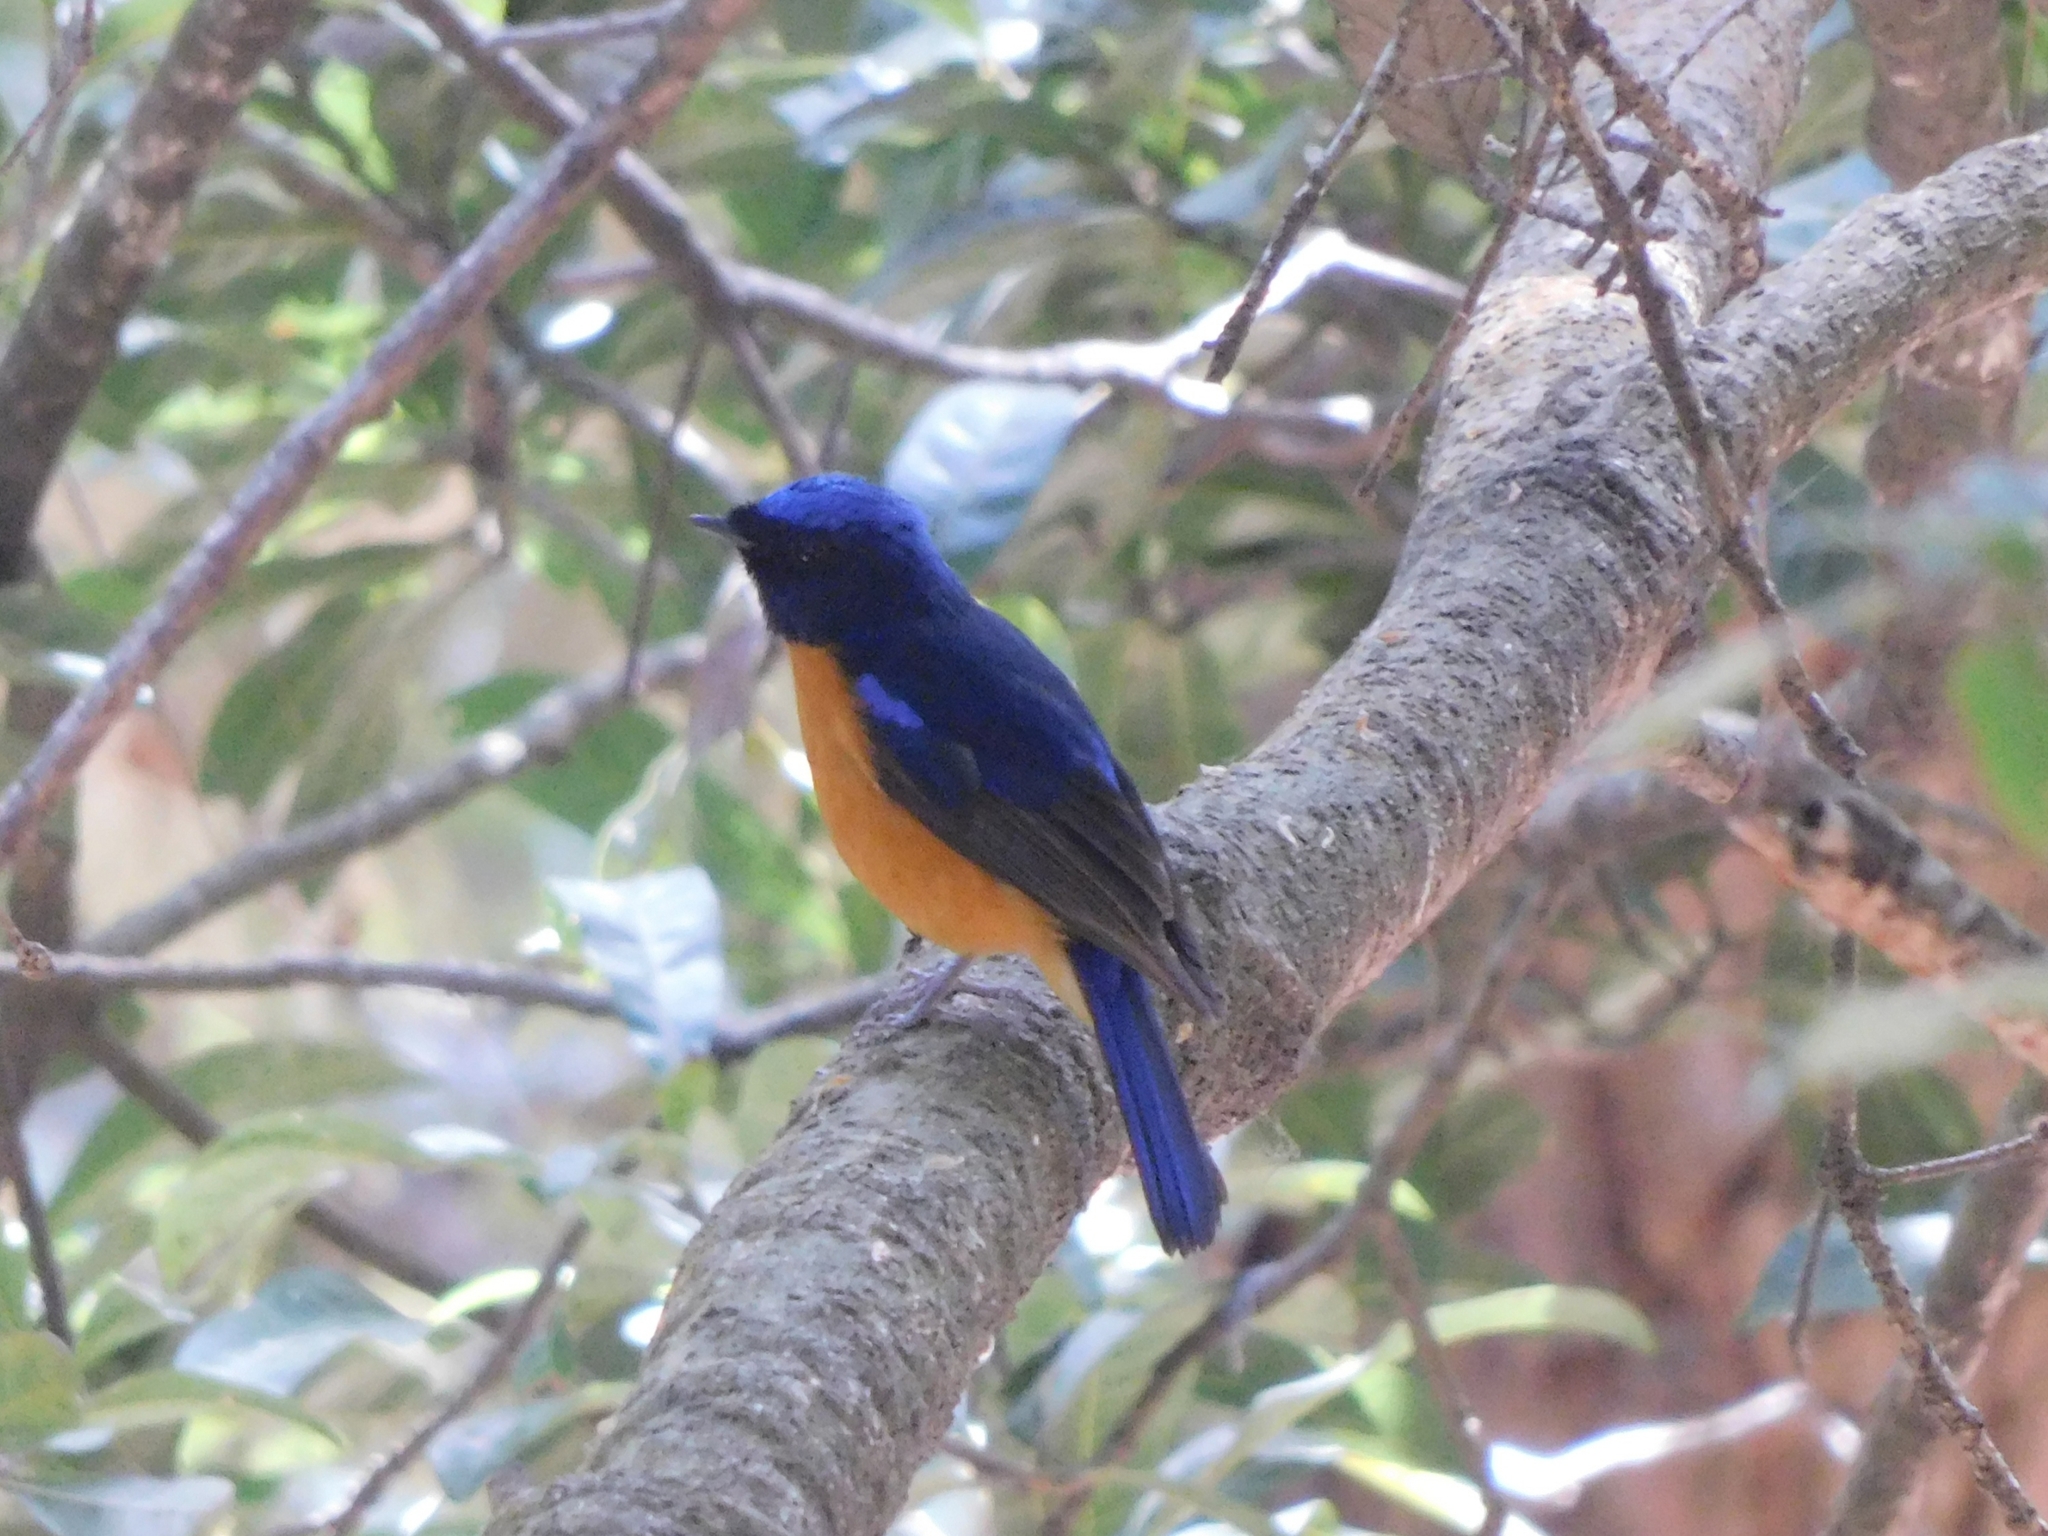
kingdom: Animalia
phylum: Chordata
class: Aves
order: Passeriformes
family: Muscicapidae
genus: Niltava
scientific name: Niltava sundara
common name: Rufous-bellied niltava
